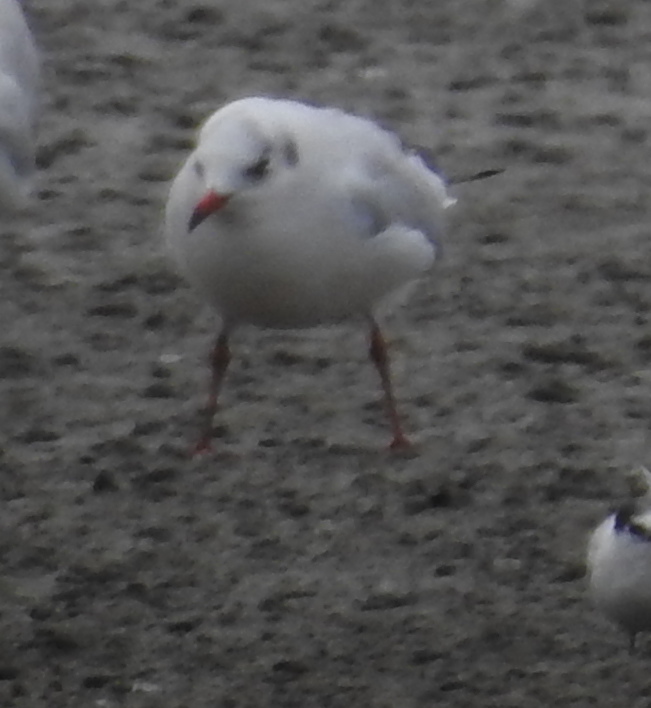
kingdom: Animalia
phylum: Chordata
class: Aves
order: Charadriiformes
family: Laridae
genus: Chroicocephalus
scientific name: Chroicocephalus ridibundus
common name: Black-headed gull
